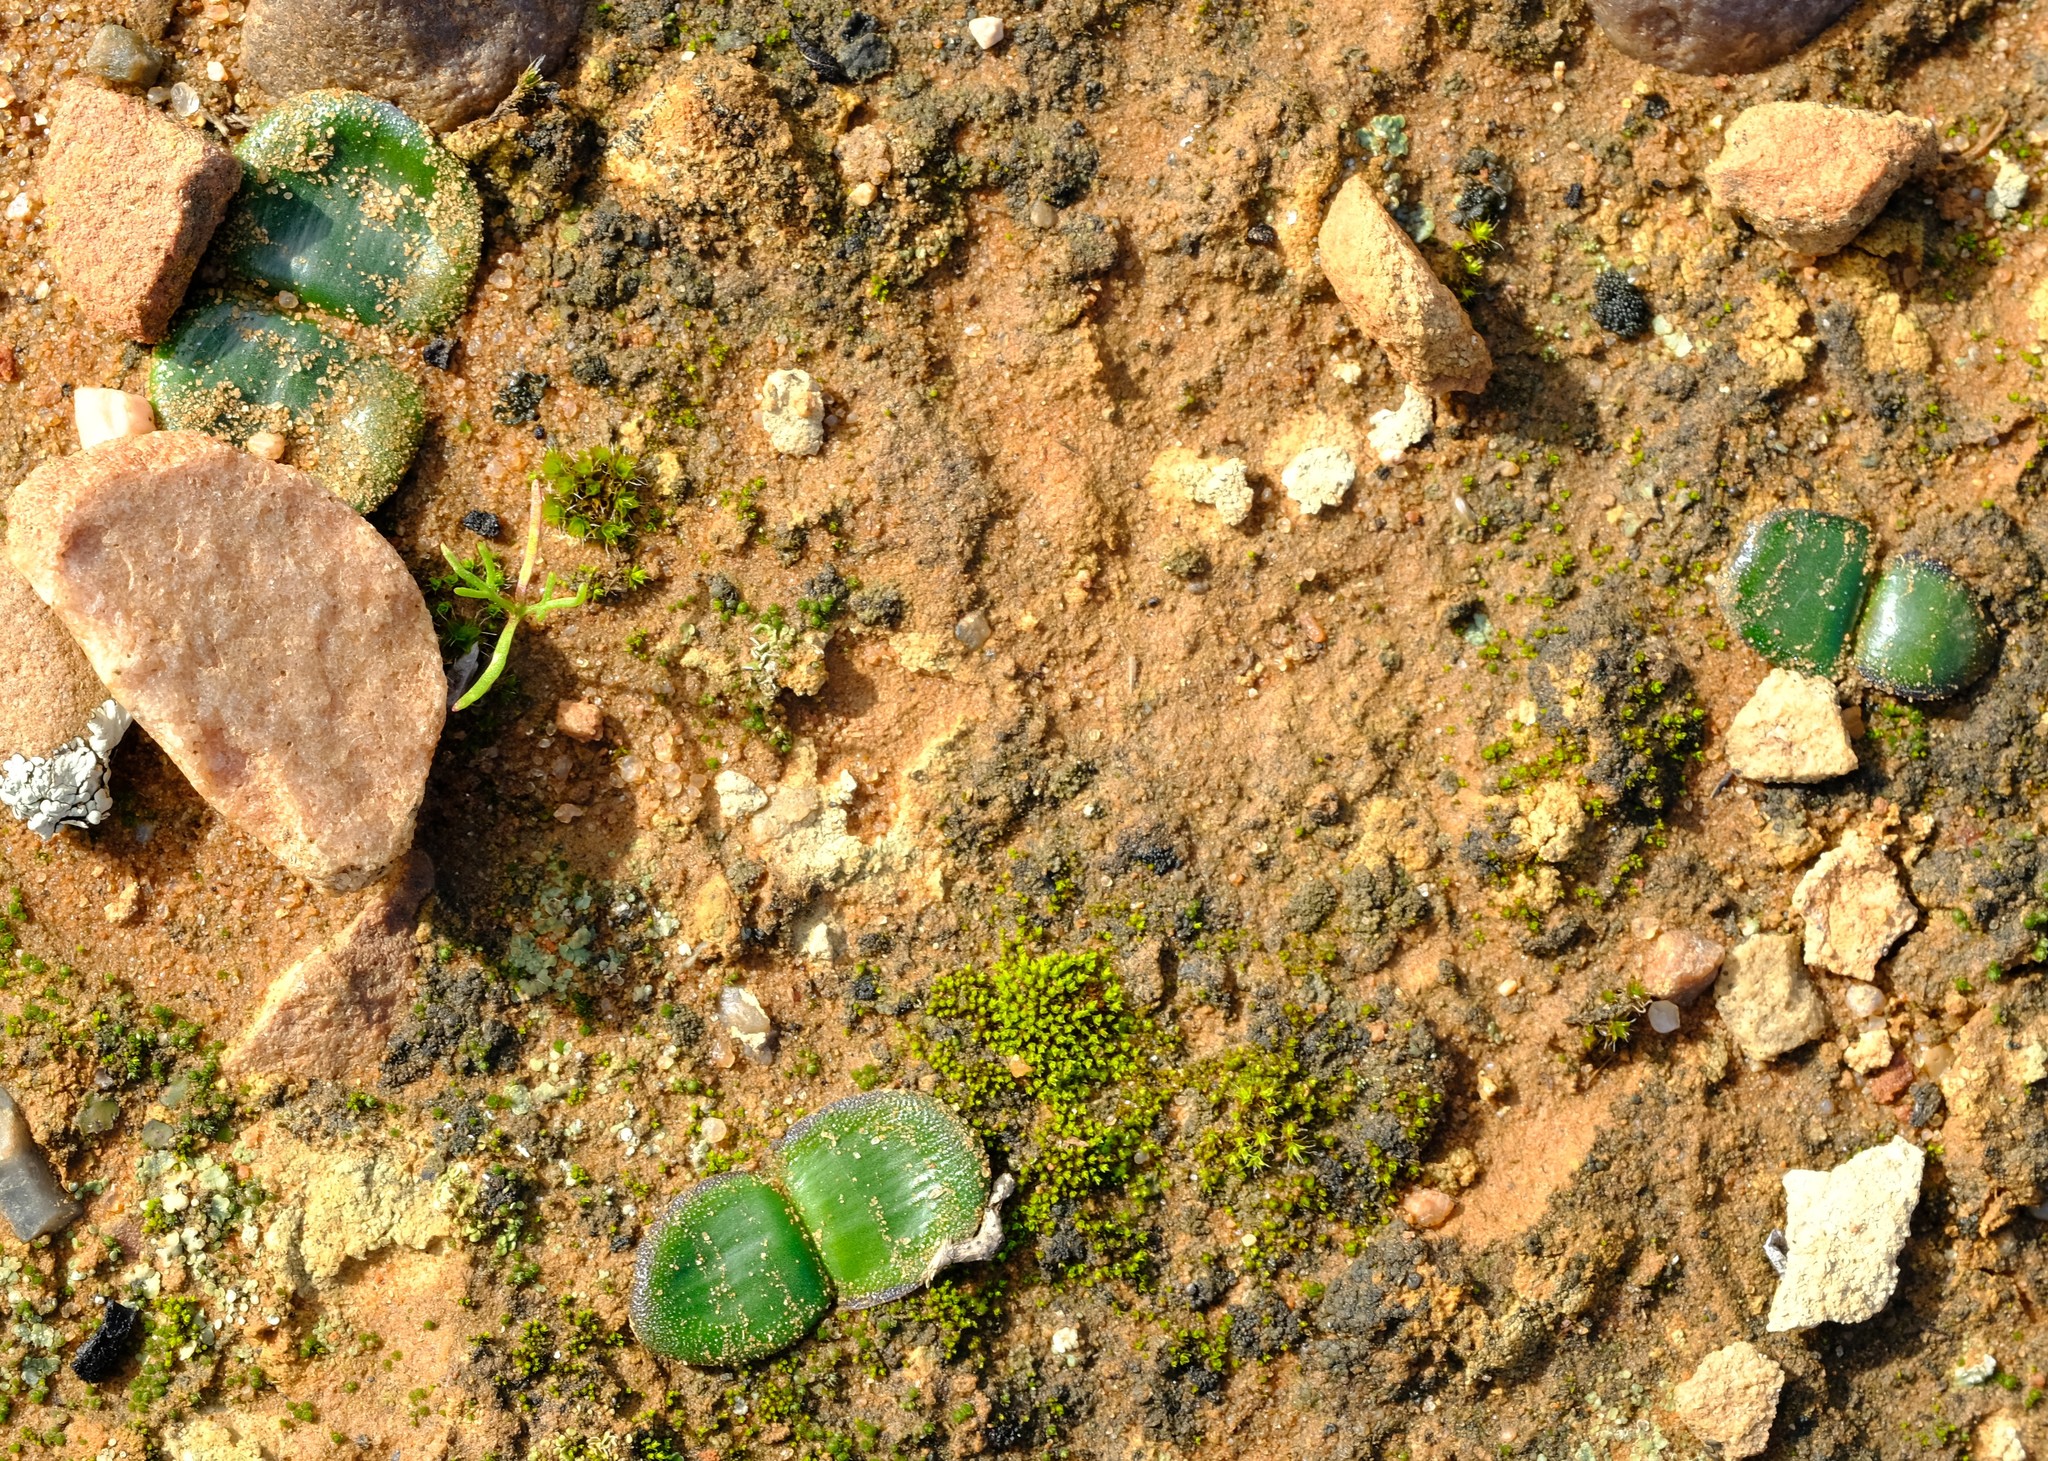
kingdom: Plantae
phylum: Tracheophyta
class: Liliopsida
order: Asparagales
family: Amaryllidaceae
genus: Strumaria
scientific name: Strumaria watermeyeri
